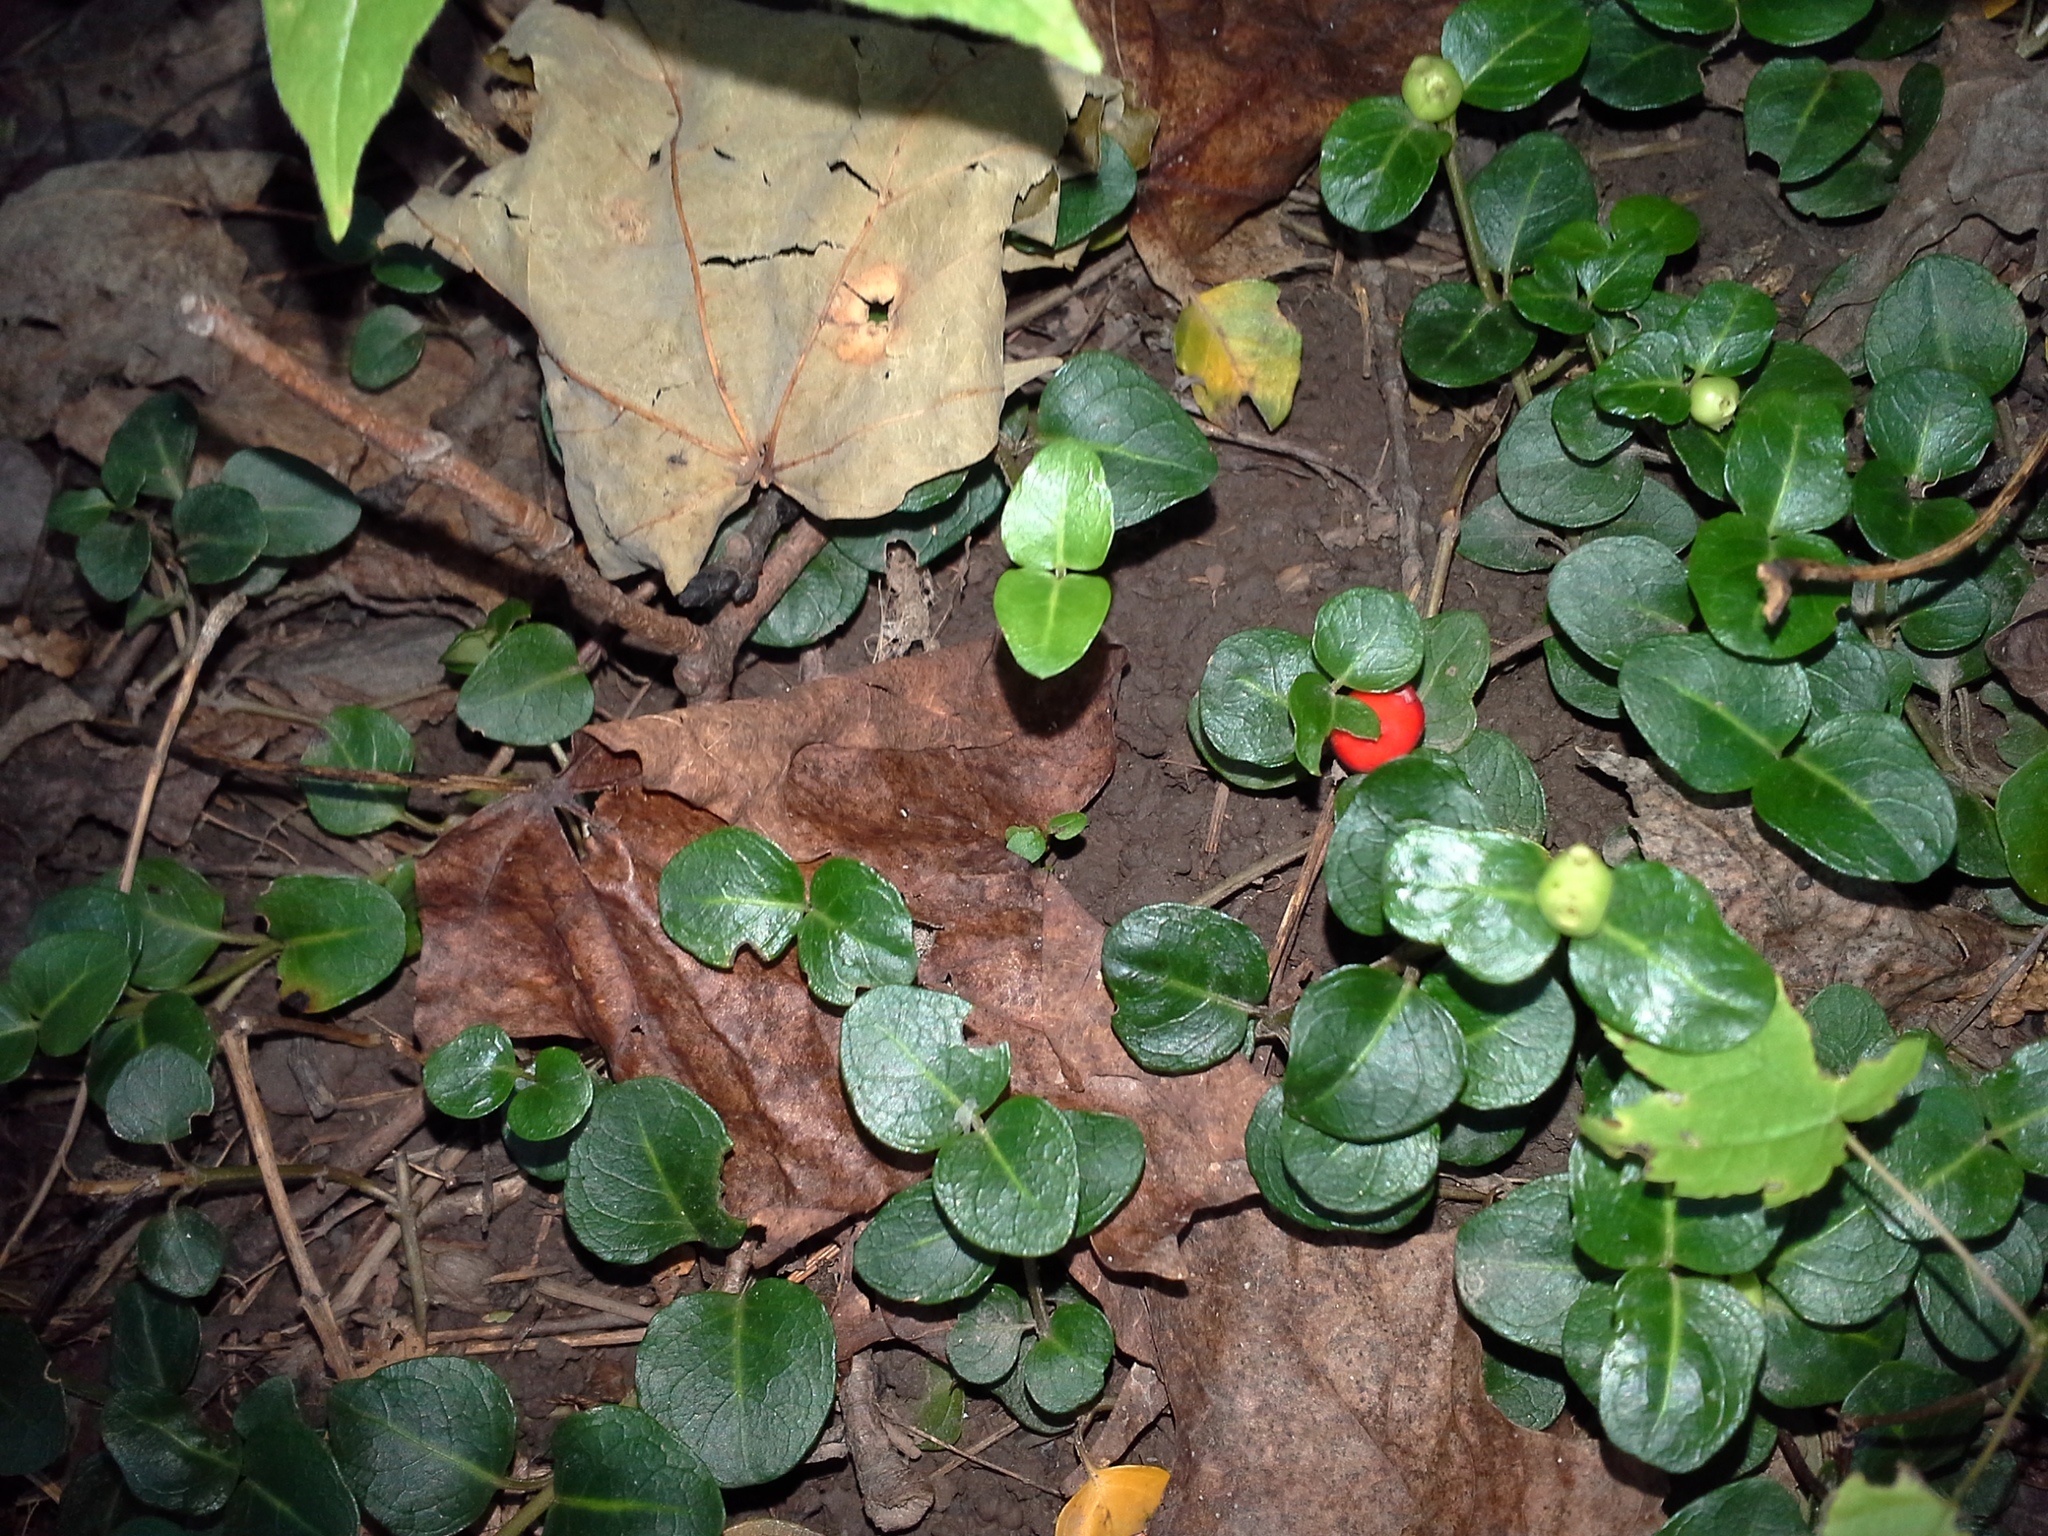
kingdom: Plantae
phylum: Tracheophyta
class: Magnoliopsida
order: Gentianales
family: Rubiaceae
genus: Mitchella
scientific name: Mitchella repens
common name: Partridge-berry
